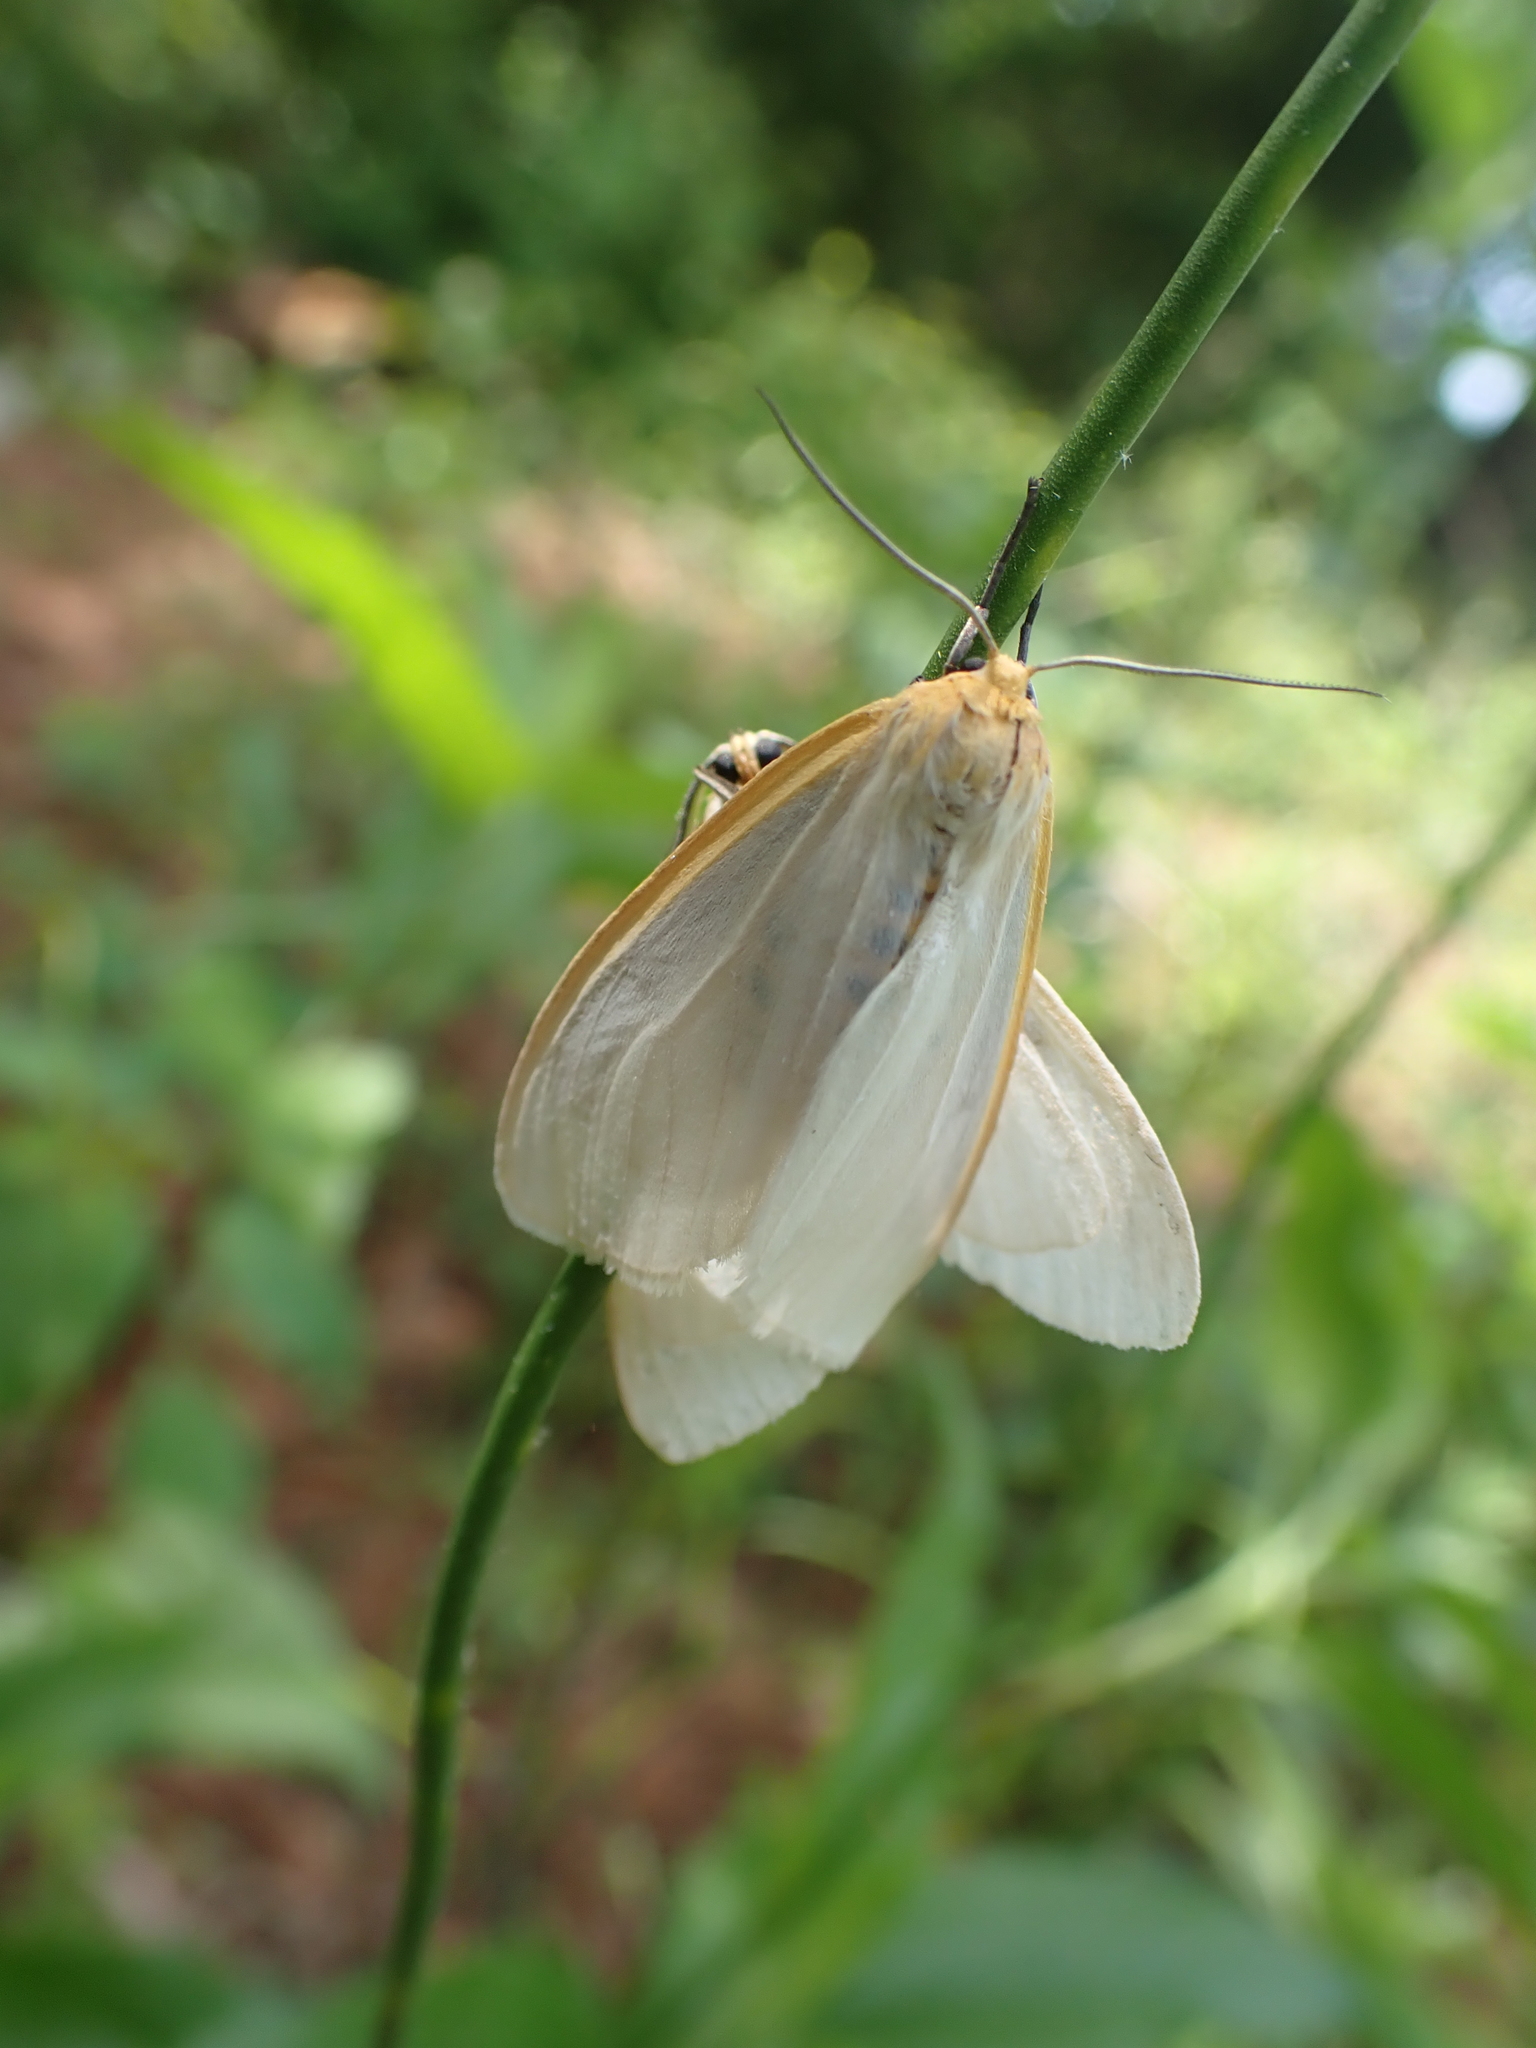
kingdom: Animalia
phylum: Arthropoda
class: Insecta
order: Lepidoptera
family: Erebidae
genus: Cycnia
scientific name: Cycnia tenera
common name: Delicate cycnia moth
